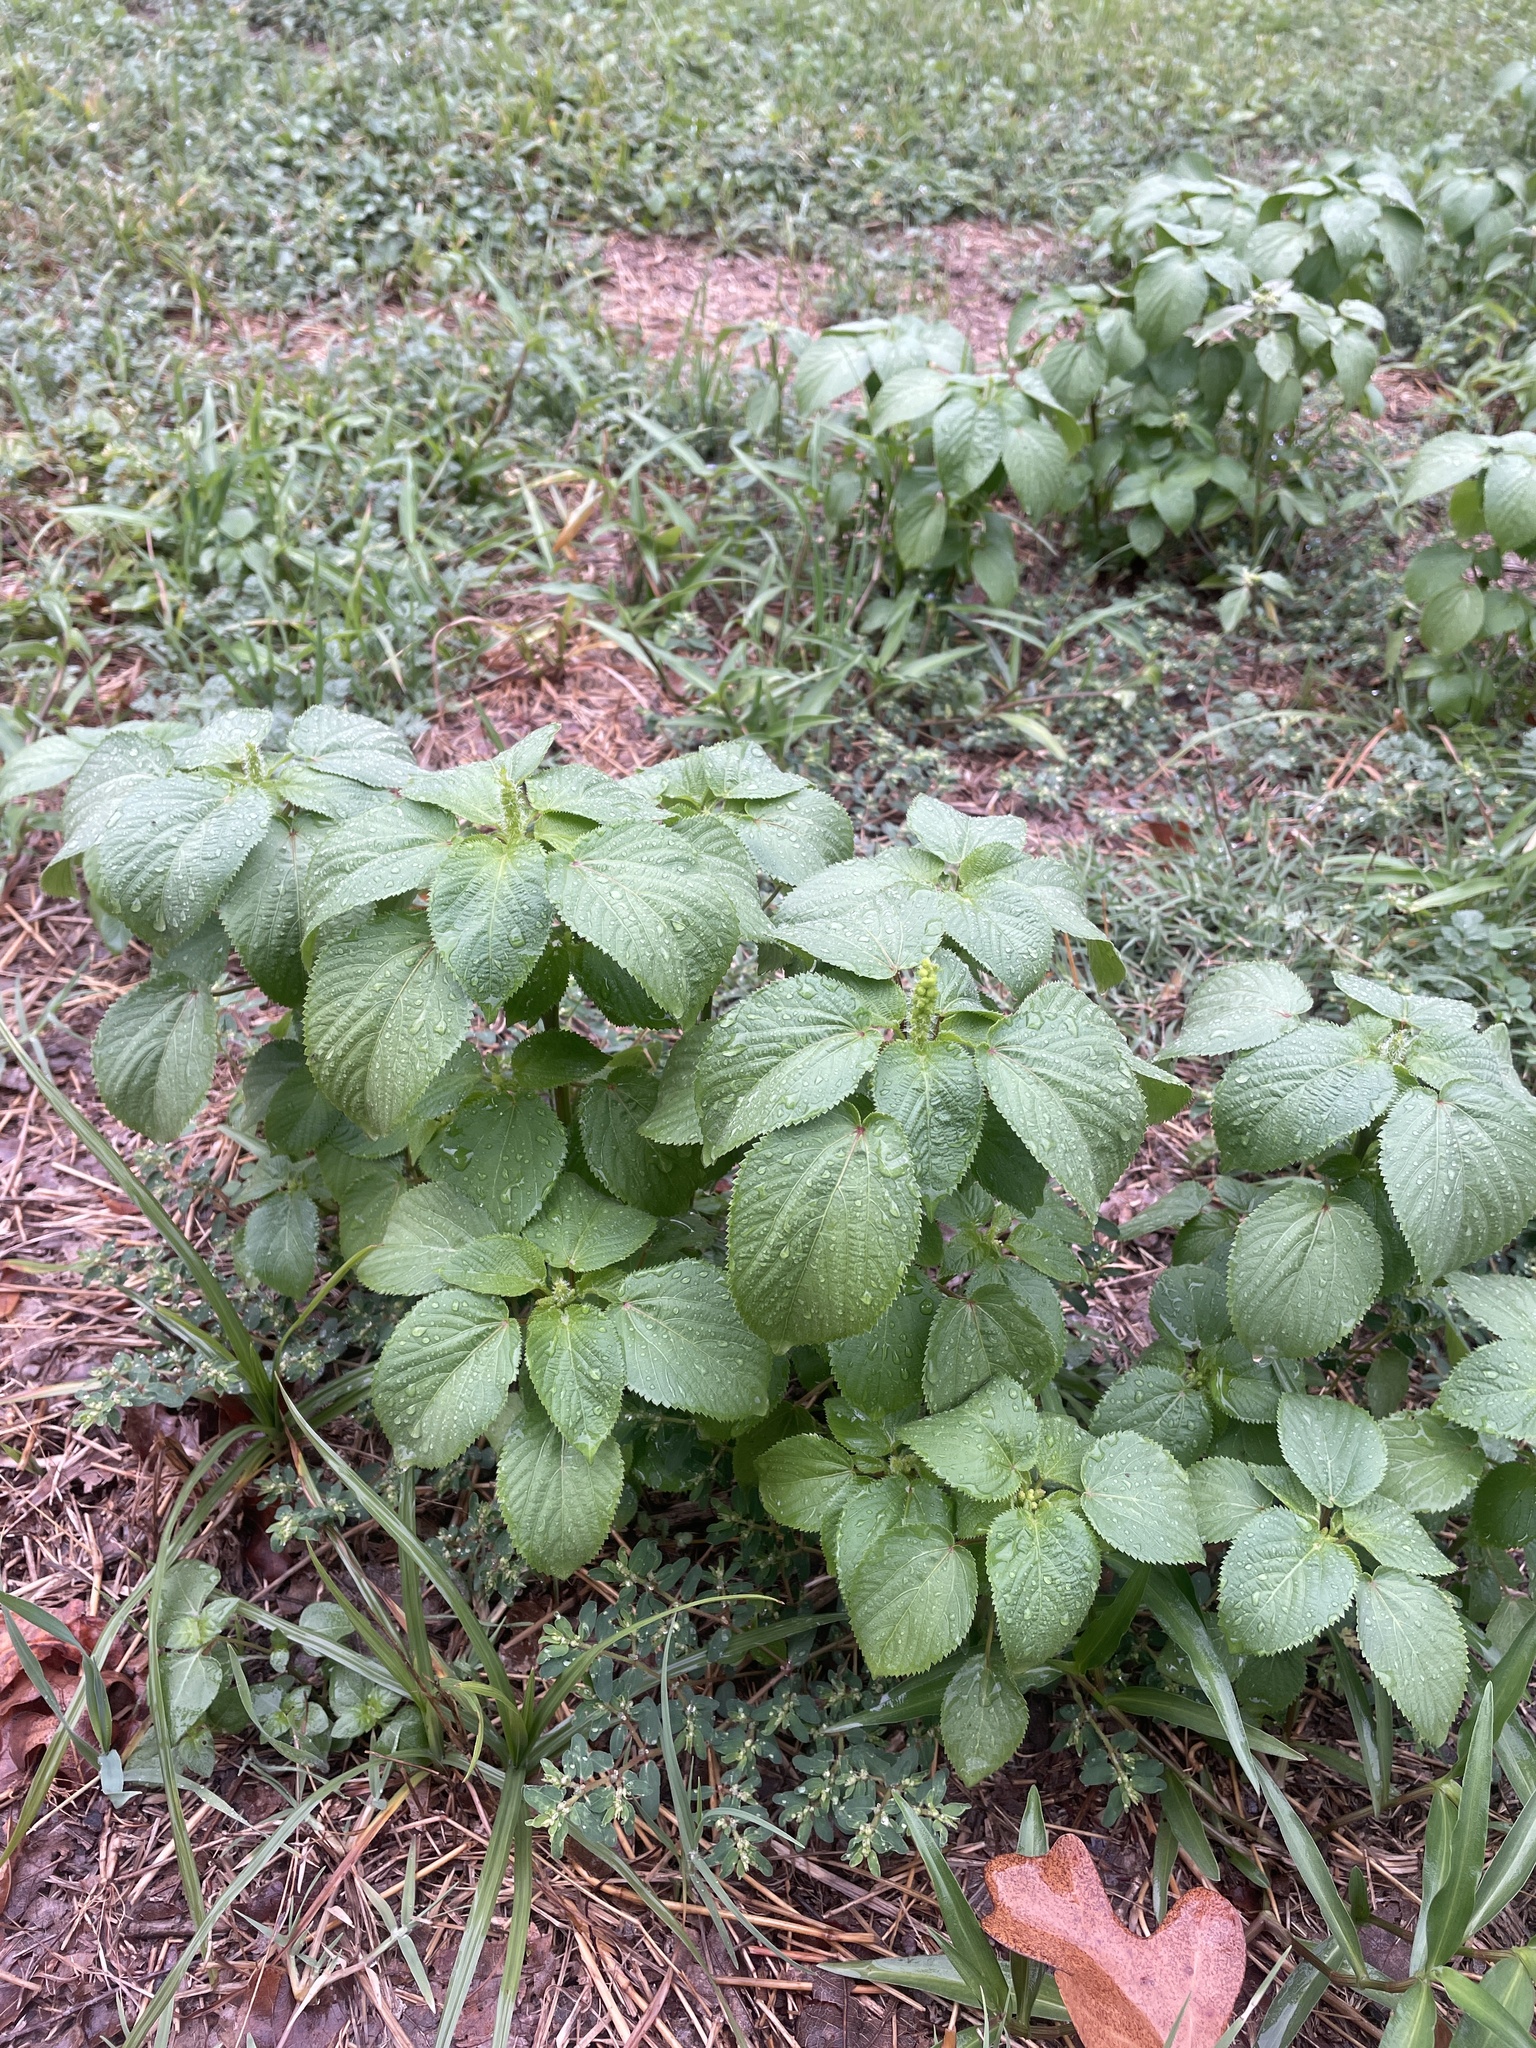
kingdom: Plantae
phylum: Tracheophyta
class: Magnoliopsida
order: Malpighiales
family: Euphorbiaceae
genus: Acalypha
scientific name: Acalypha ostryifolia
